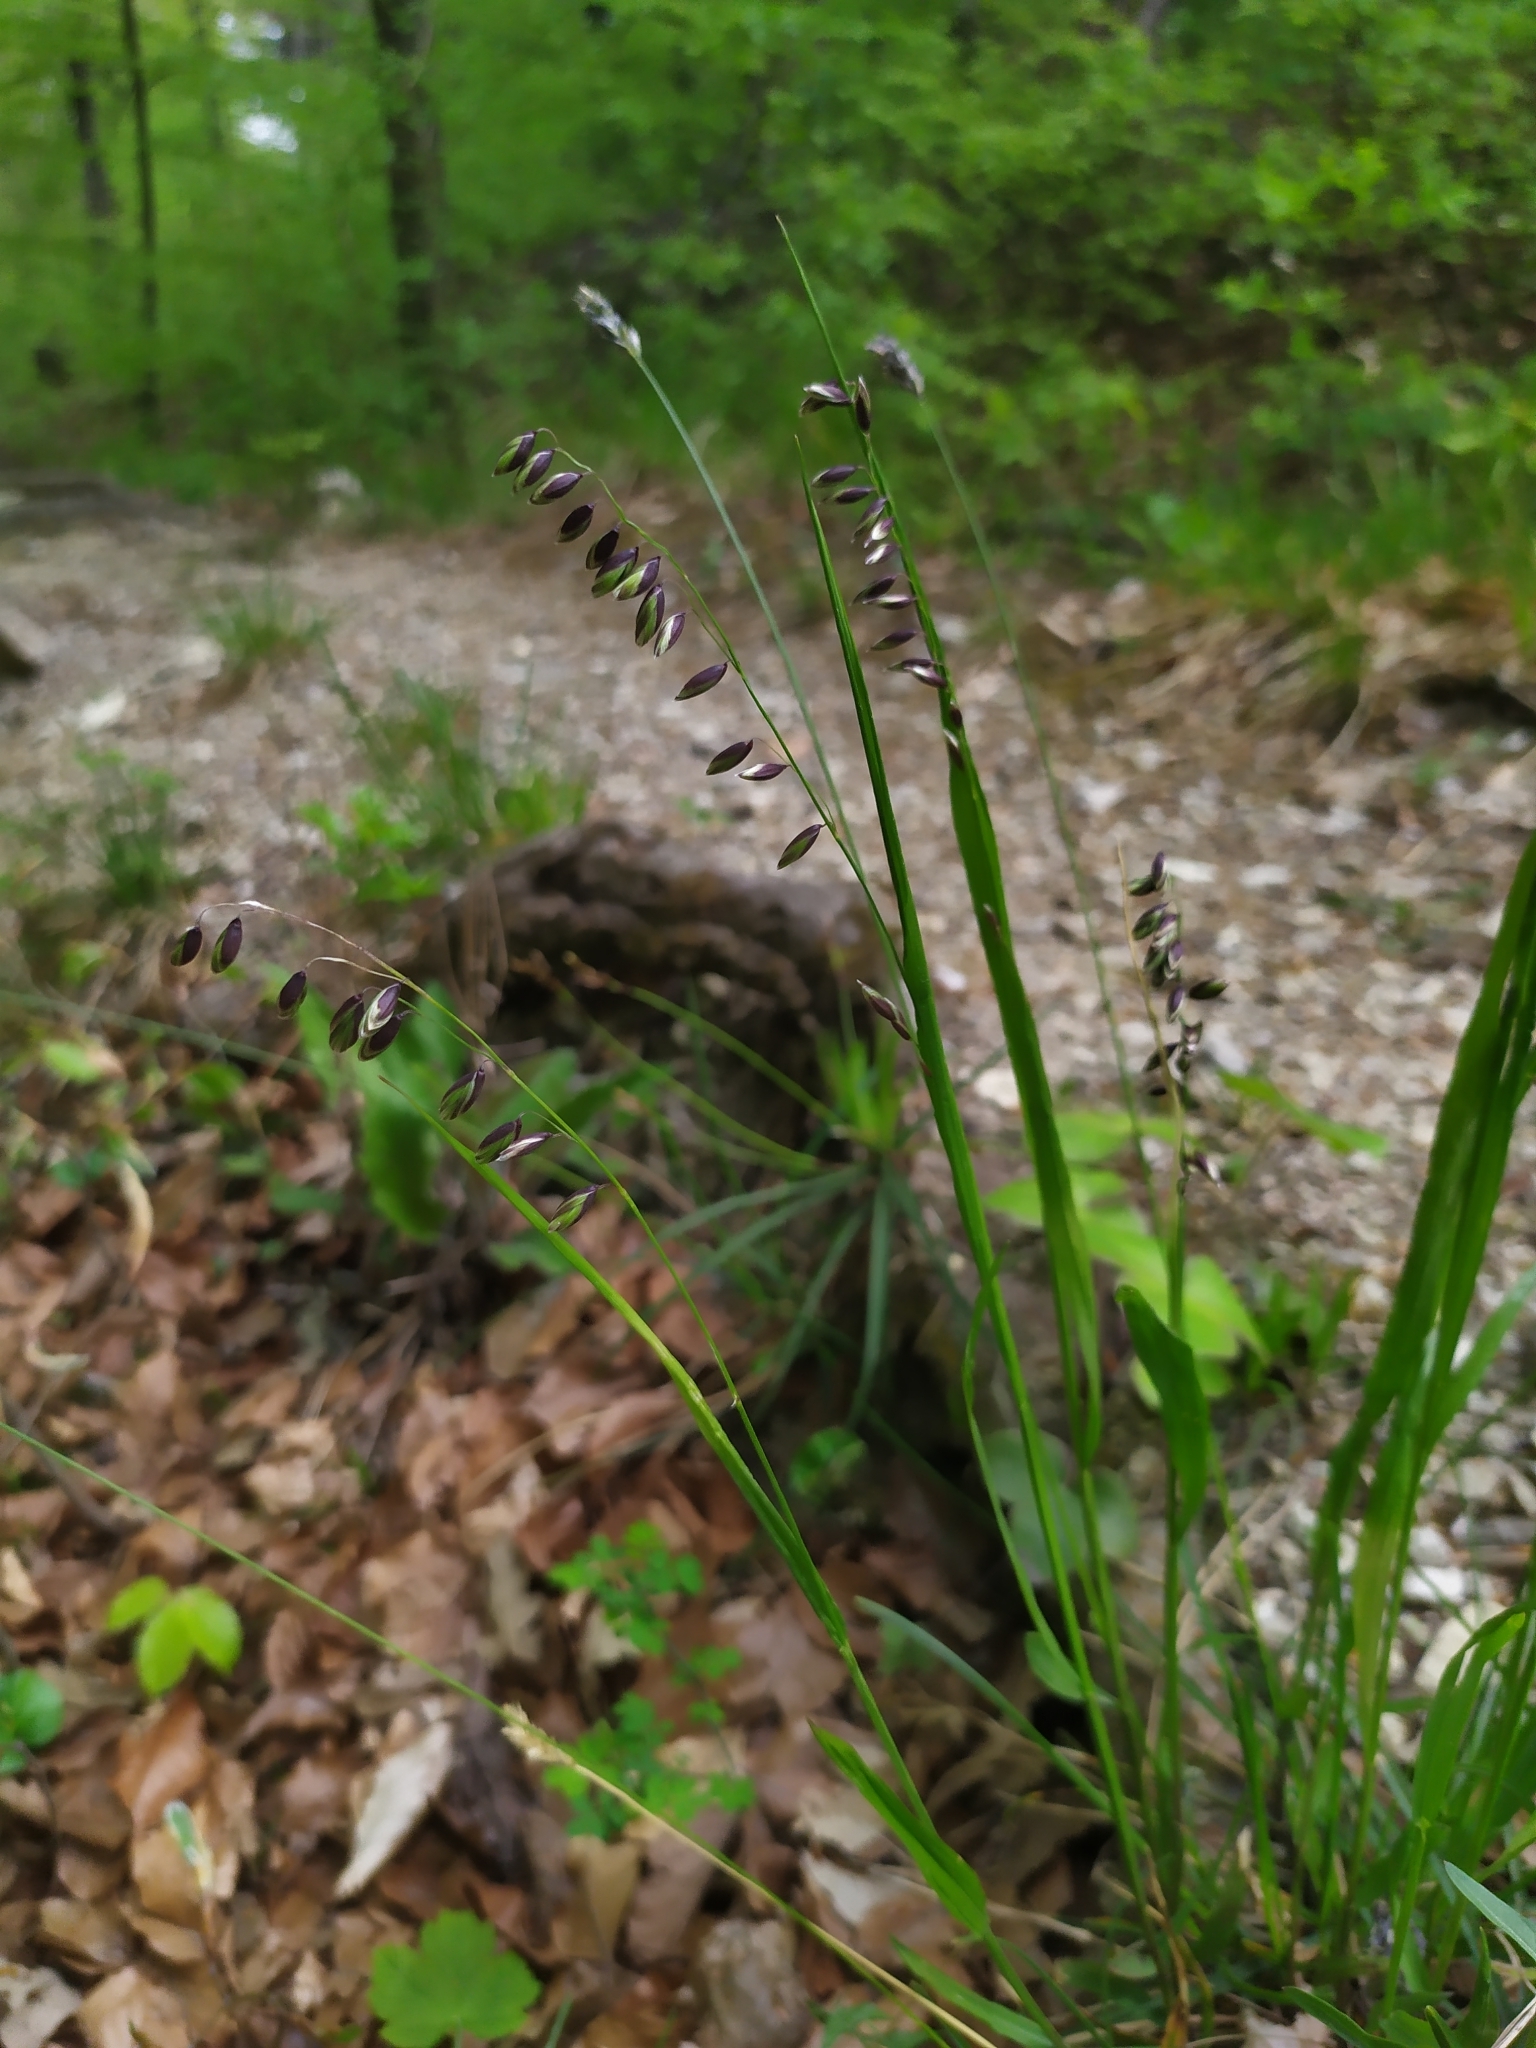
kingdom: Plantae
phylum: Tracheophyta
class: Liliopsida
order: Poales
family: Poaceae
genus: Melica
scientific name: Melica nutans
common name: Mountain melick
